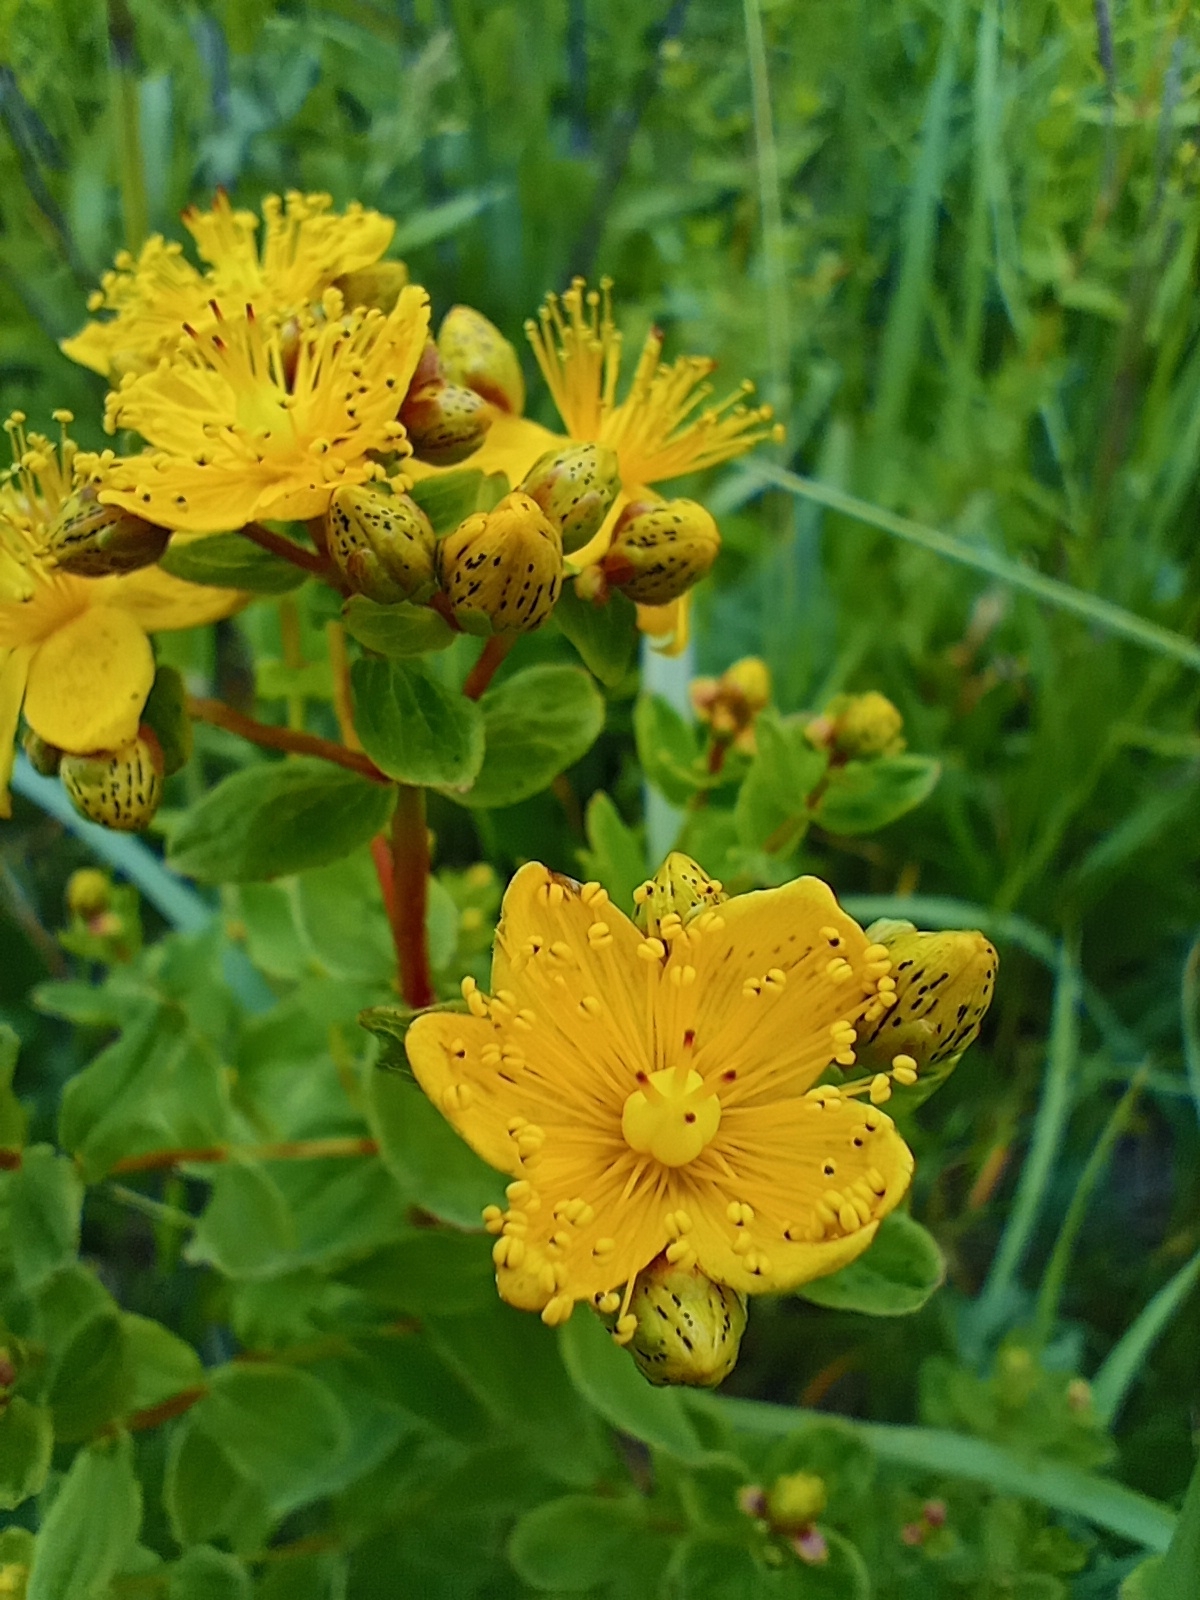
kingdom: Plantae
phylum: Tracheophyta
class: Magnoliopsida
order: Malpighiales
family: Hypericaceae
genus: Hypericum
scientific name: Hypericum maculatum
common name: Imperforate st. john's-wort
